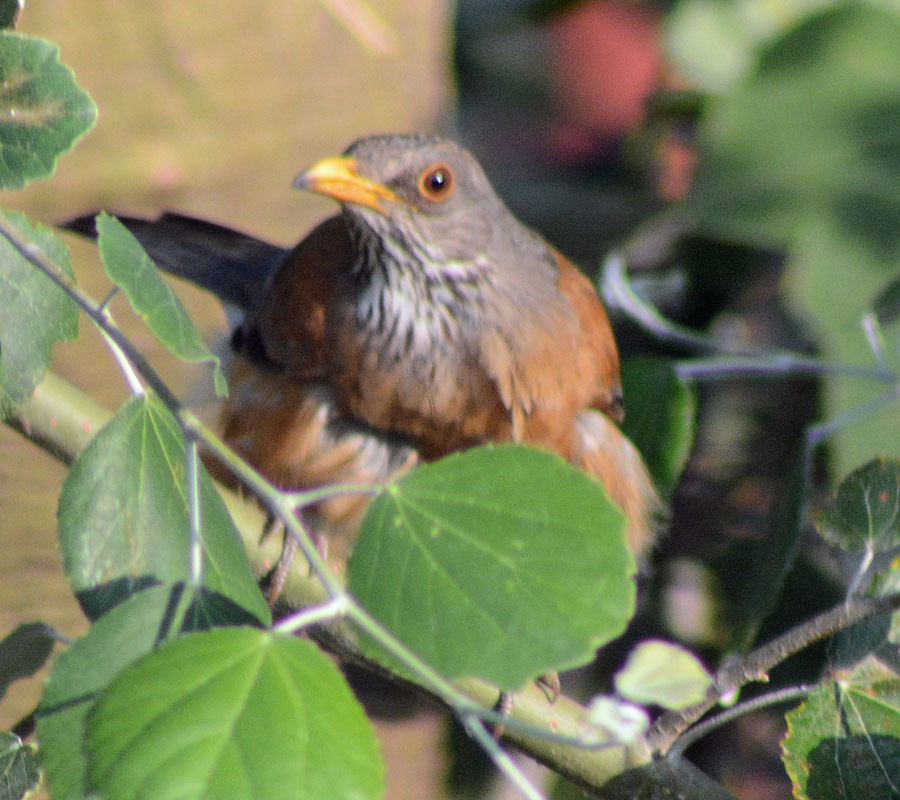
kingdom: Animalia
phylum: Chordata
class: Aves
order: Passeriformes
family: Turdidae
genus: Turdus
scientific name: Turdus rufopalliatus
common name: Rufous-backed robin
